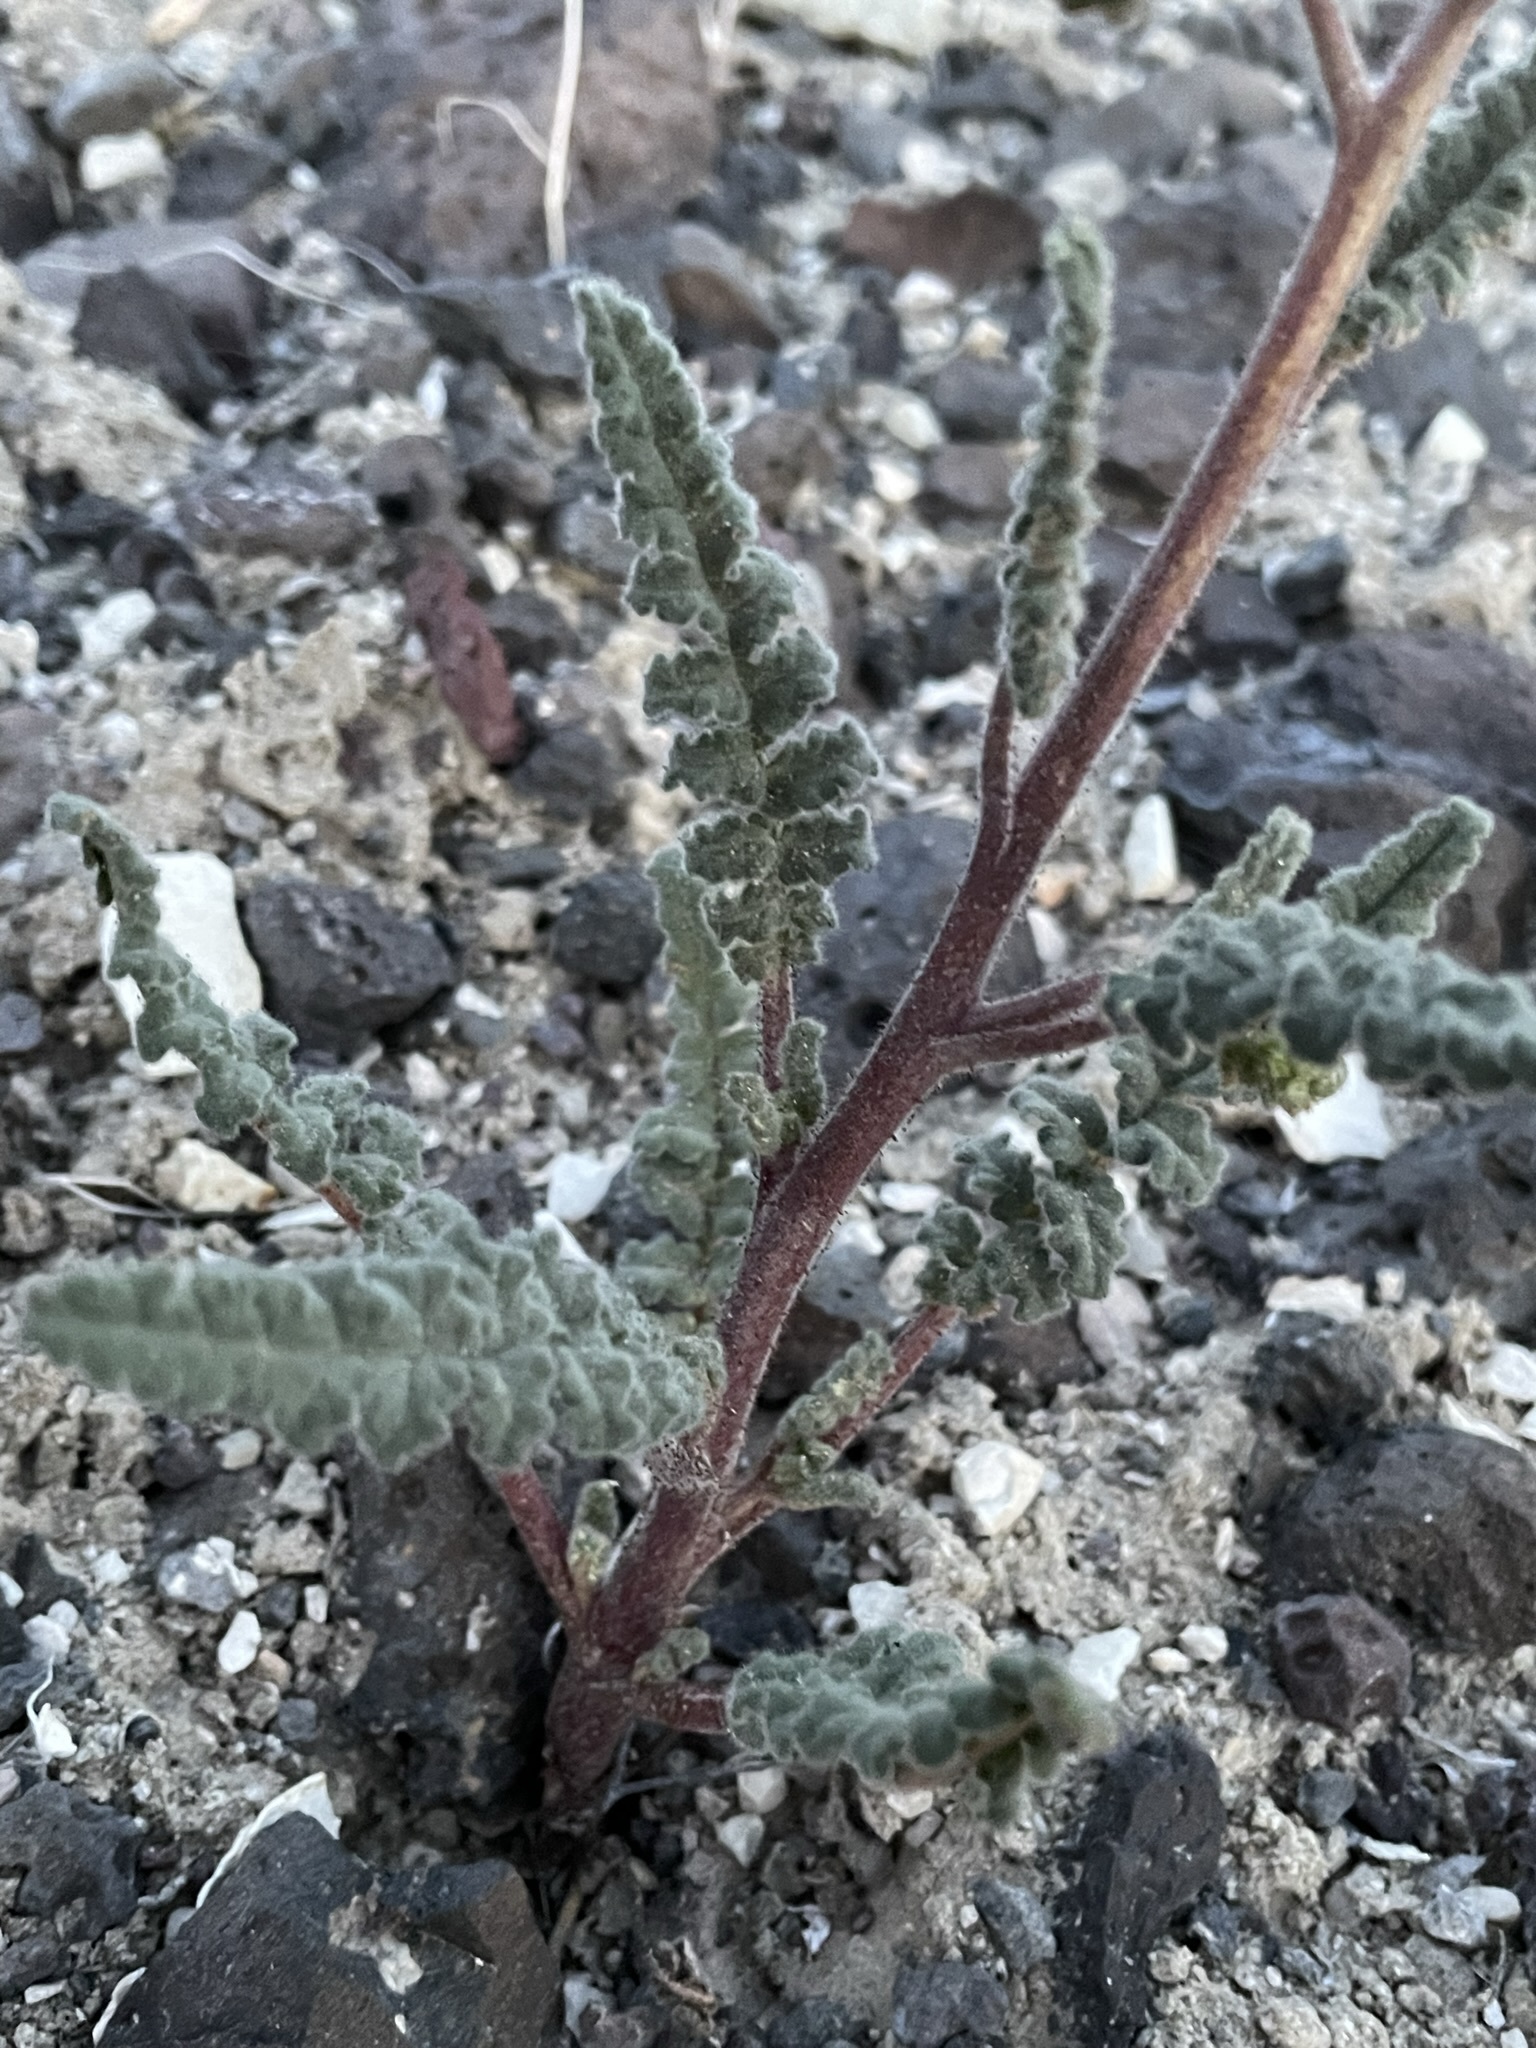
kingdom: Plantae
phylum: Tracheophyta
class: Magnoliopsida
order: Boraginales
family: Hydrophyllaceae
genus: Phacelia
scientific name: Phacelia crenulata
